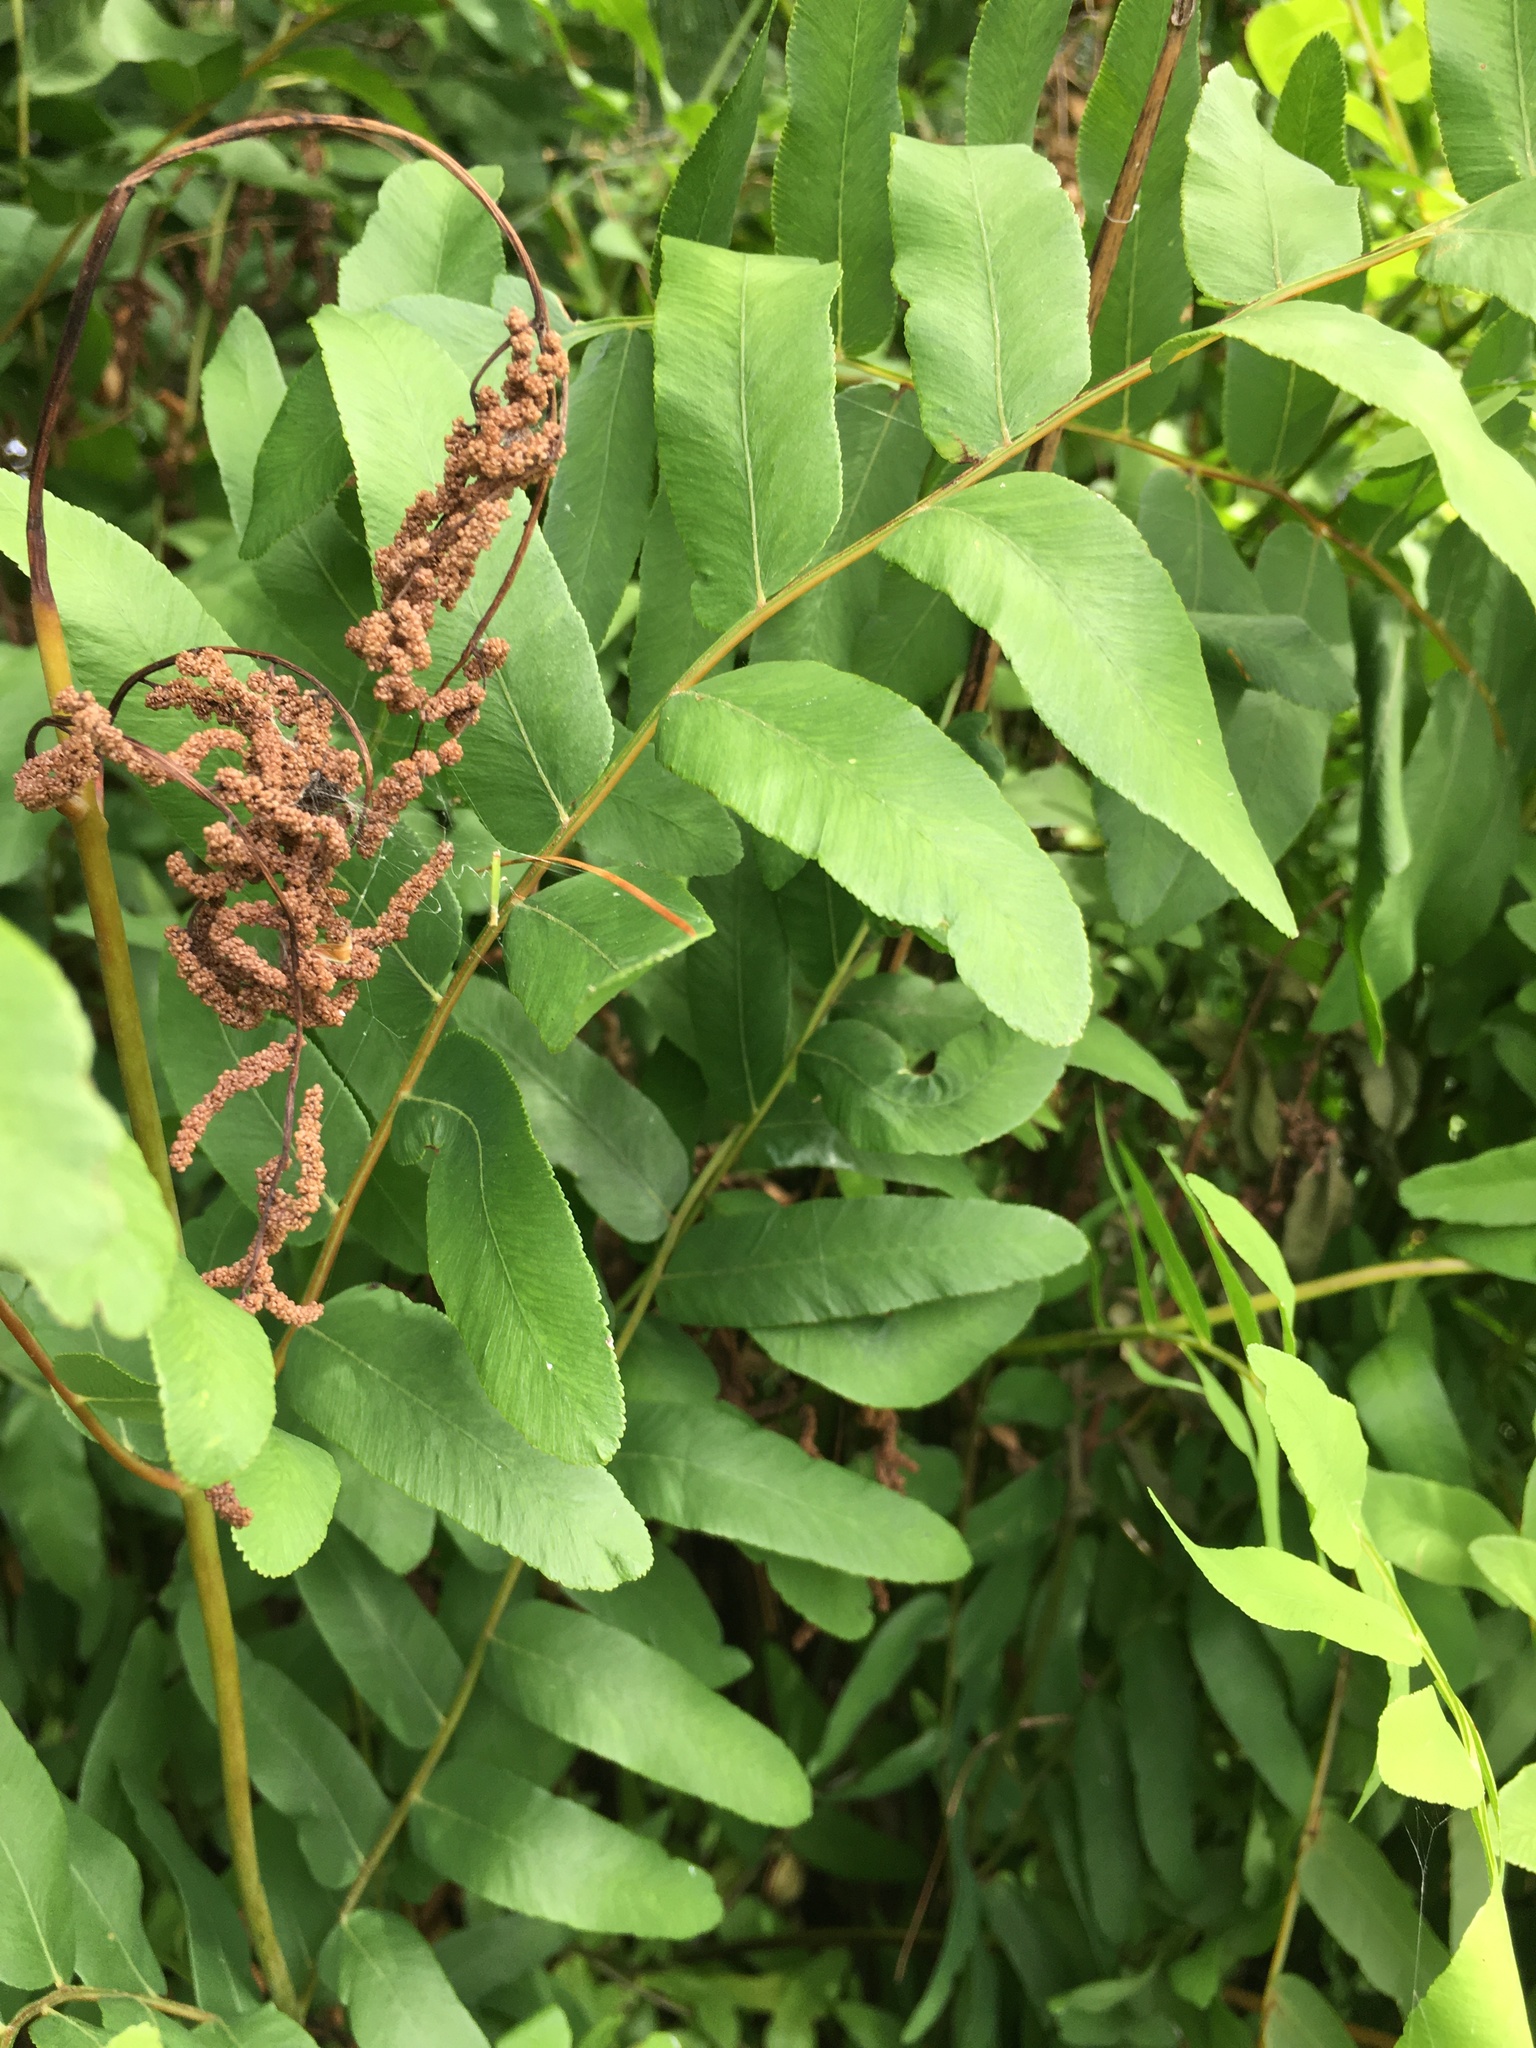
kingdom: Plantae
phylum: Tracheophyta
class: Polypodiopsida
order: Osmundales
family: Osmundaceae
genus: Osmunda
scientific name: Osmunda spectabilis
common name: American royal fern
